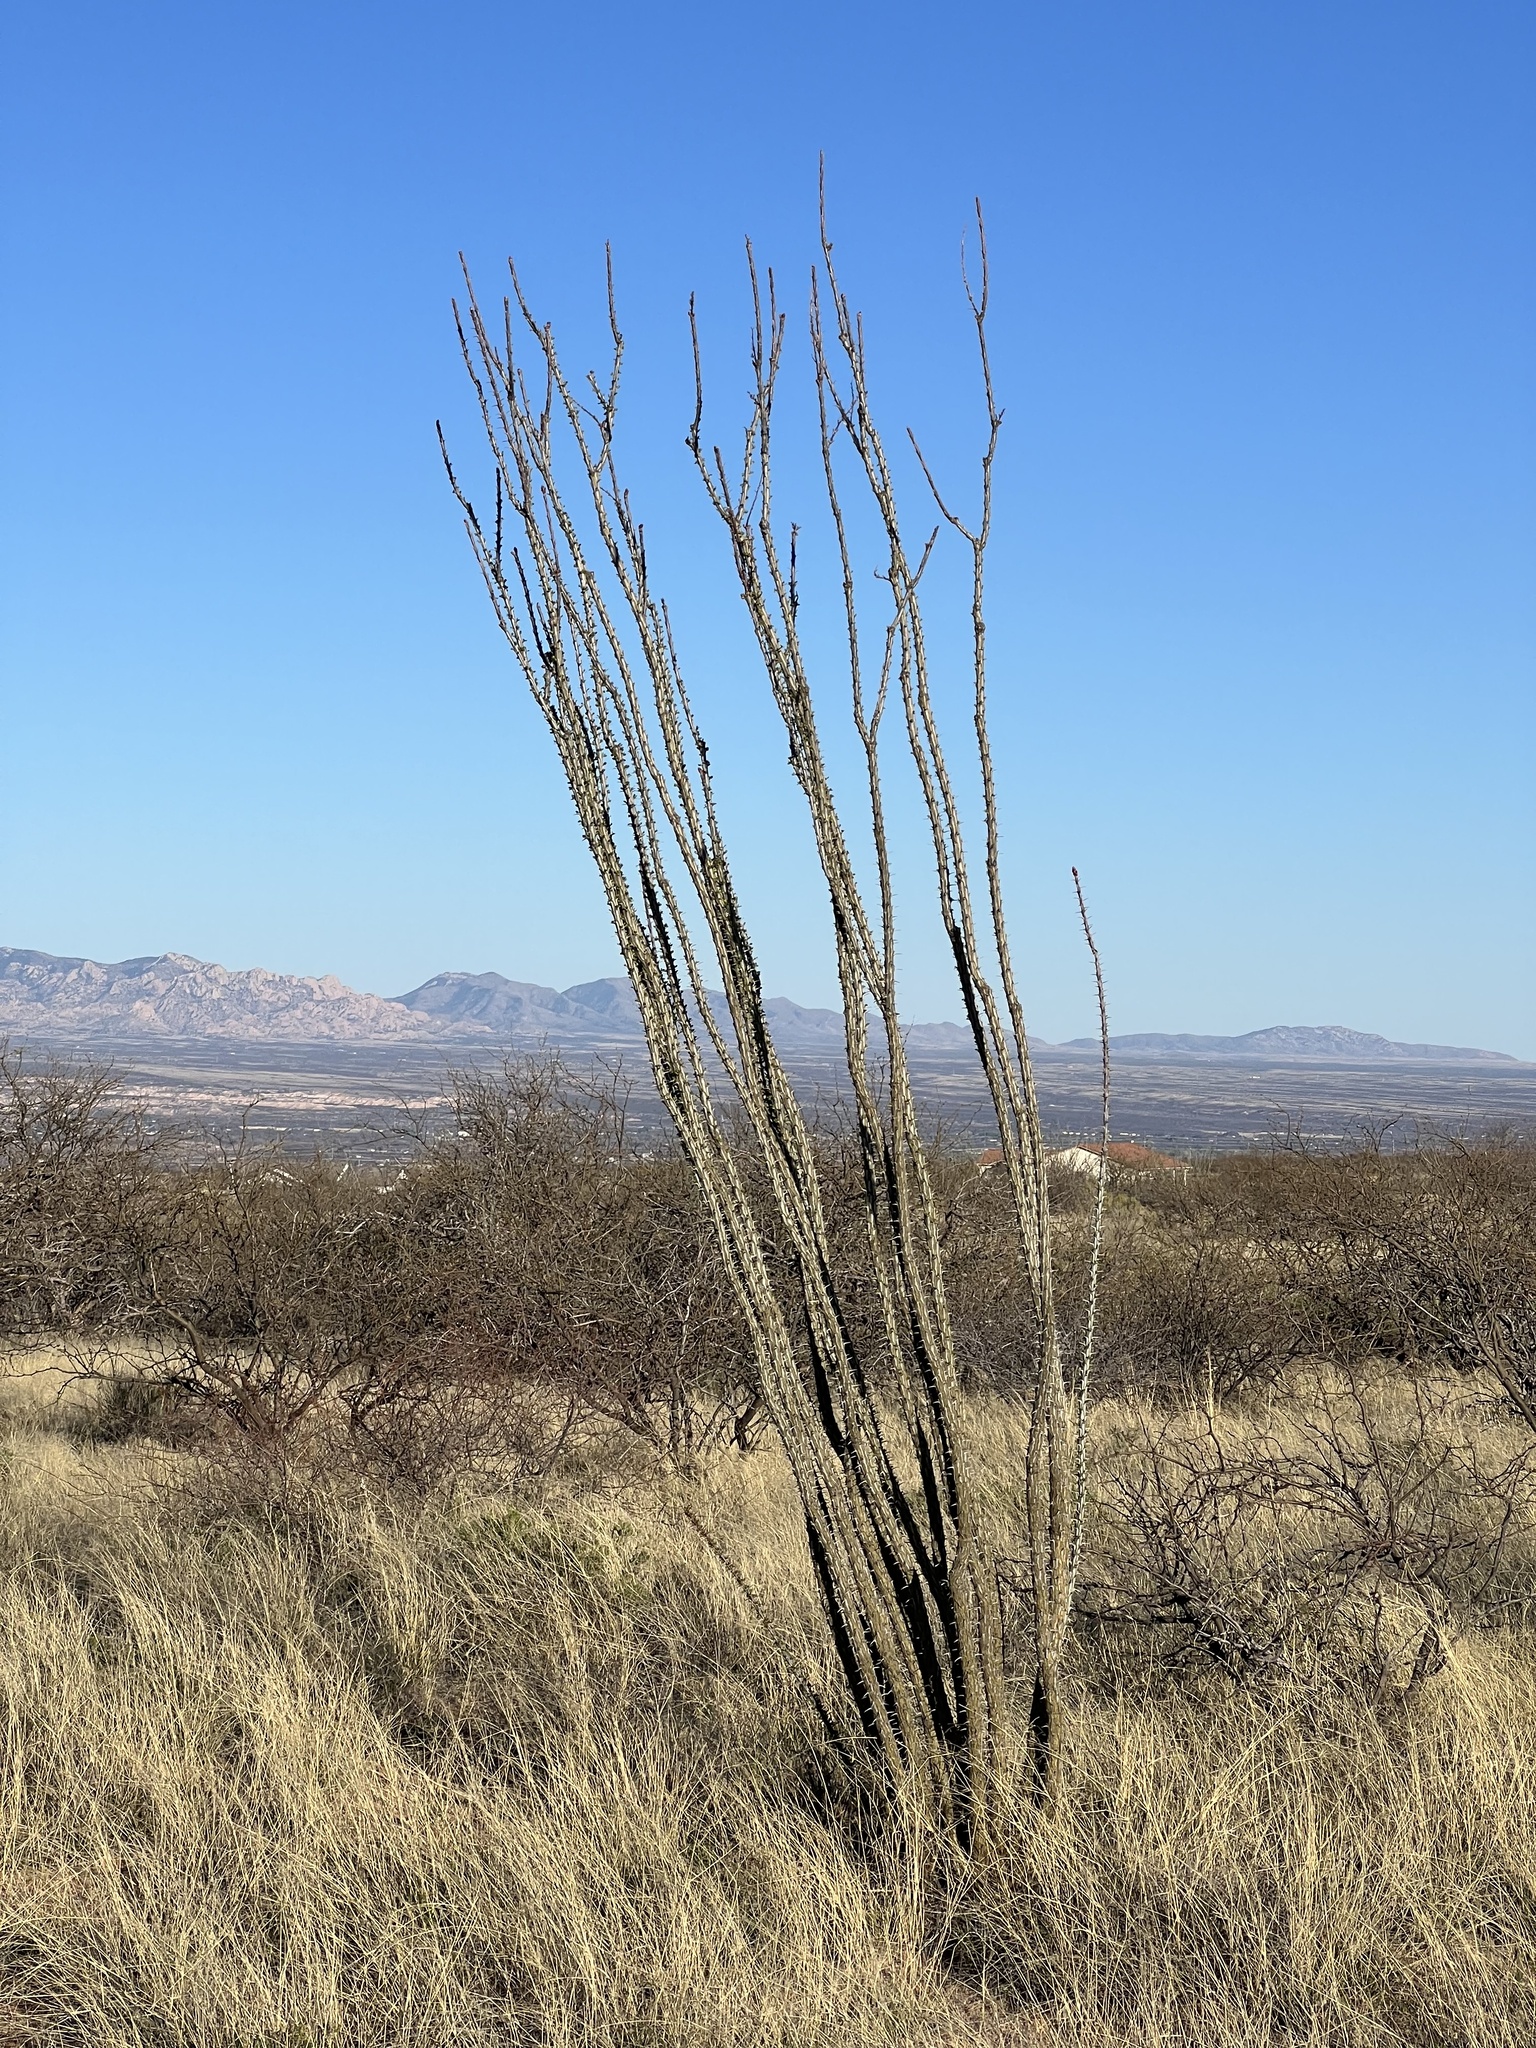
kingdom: Plantae
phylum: Tracheophyta
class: Magnoliopsida
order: Ericales
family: Fouquieriaceae
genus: Fouquieria
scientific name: Fouquieria splendens
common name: Vine-cactus
